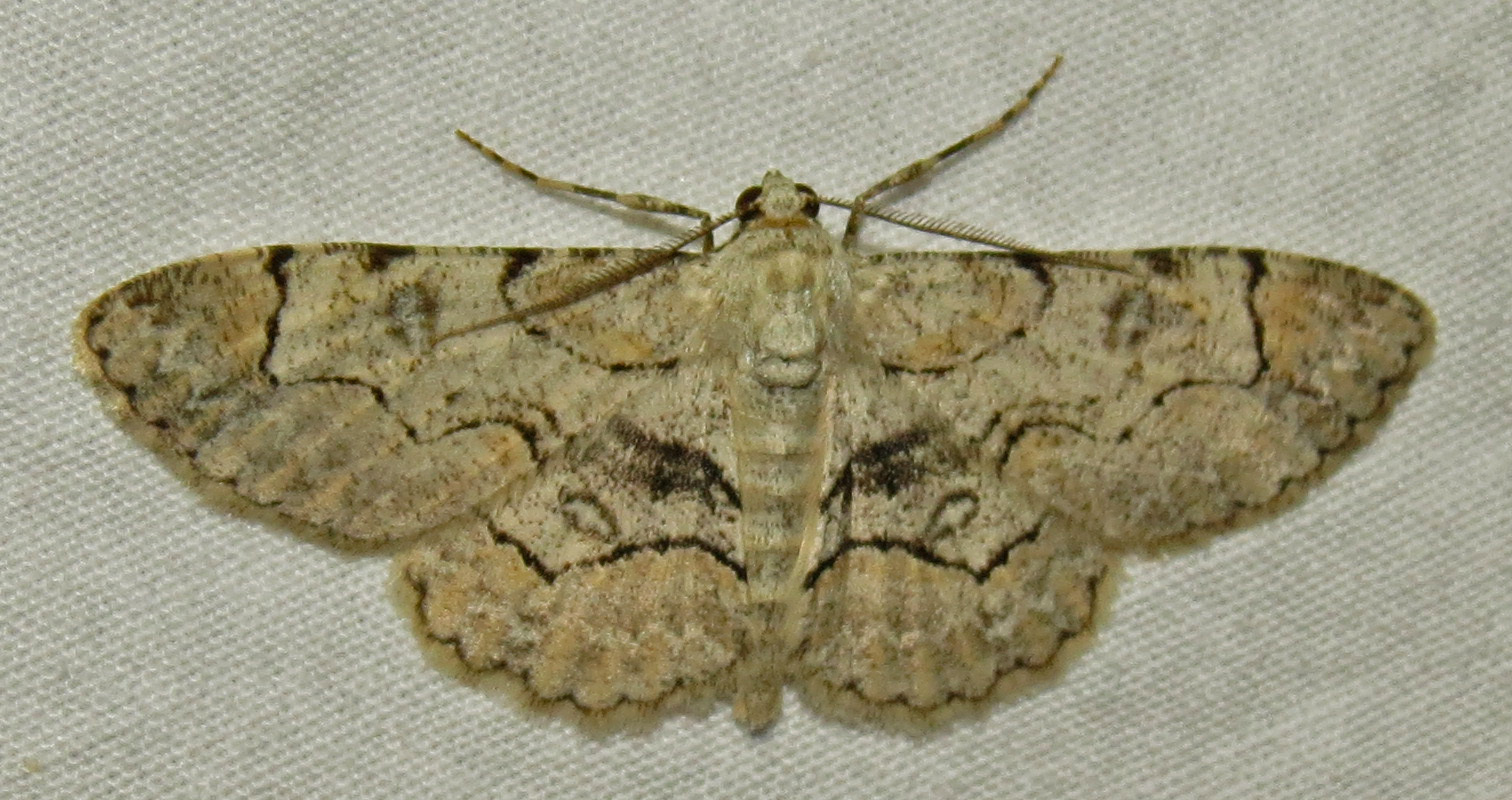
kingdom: Animalia
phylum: Arthropoda
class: Insecta
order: Lepidoptera
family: Geometridae
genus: Iridopsis
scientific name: Iridopsis larvaria
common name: Bent-line gray
